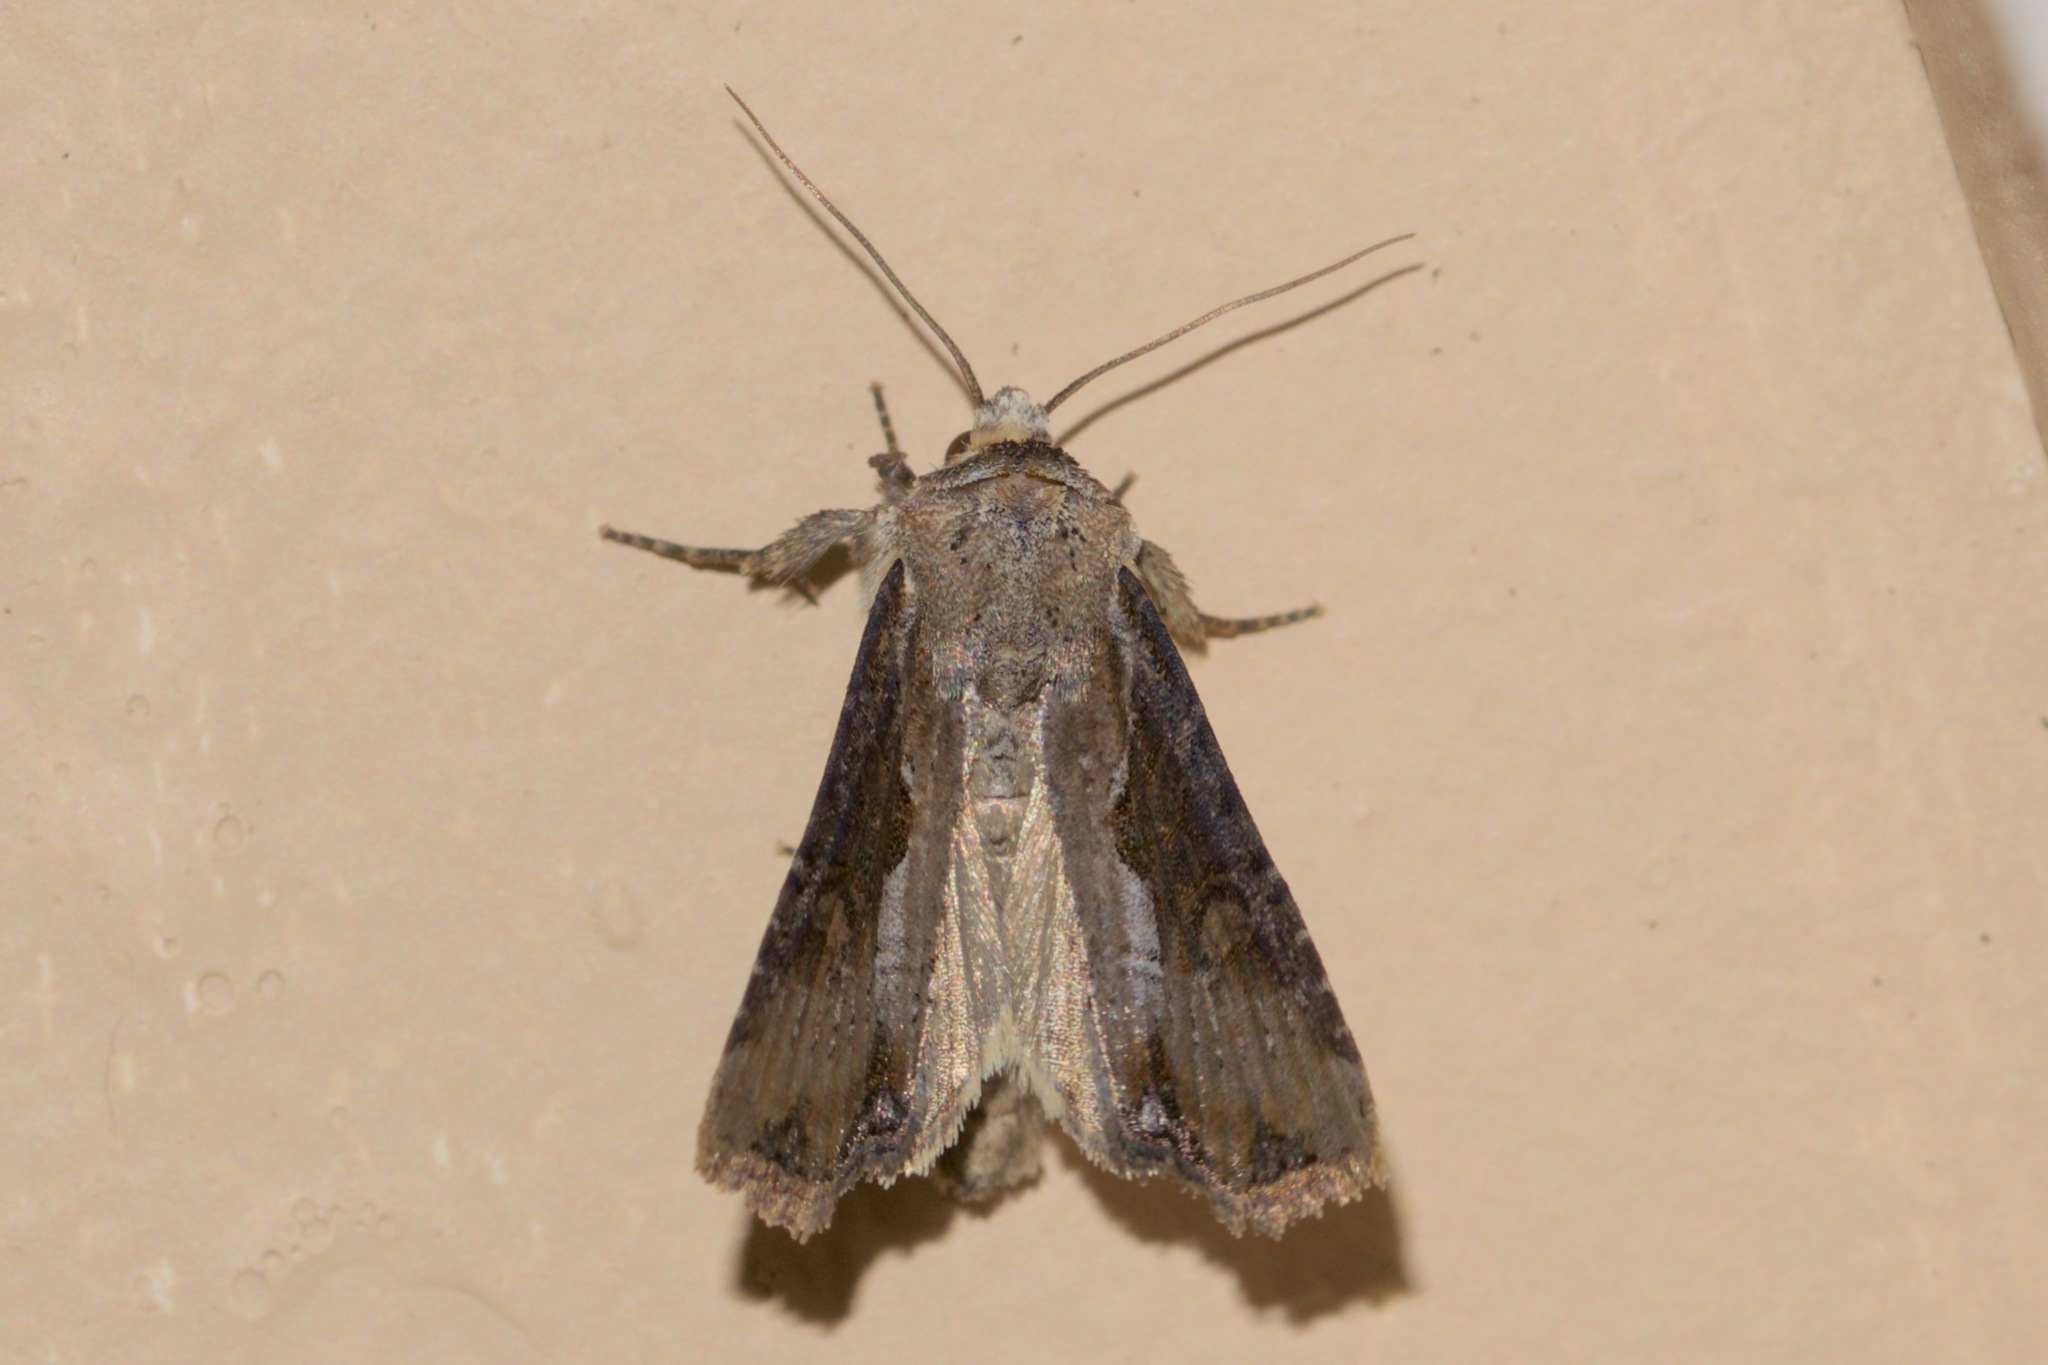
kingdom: Animalia
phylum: Arthropoda
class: Insecta
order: Lepidoptera
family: Noctuidae
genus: Lateroligia
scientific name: Lateroligia ophiogramma
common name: Double lobed
